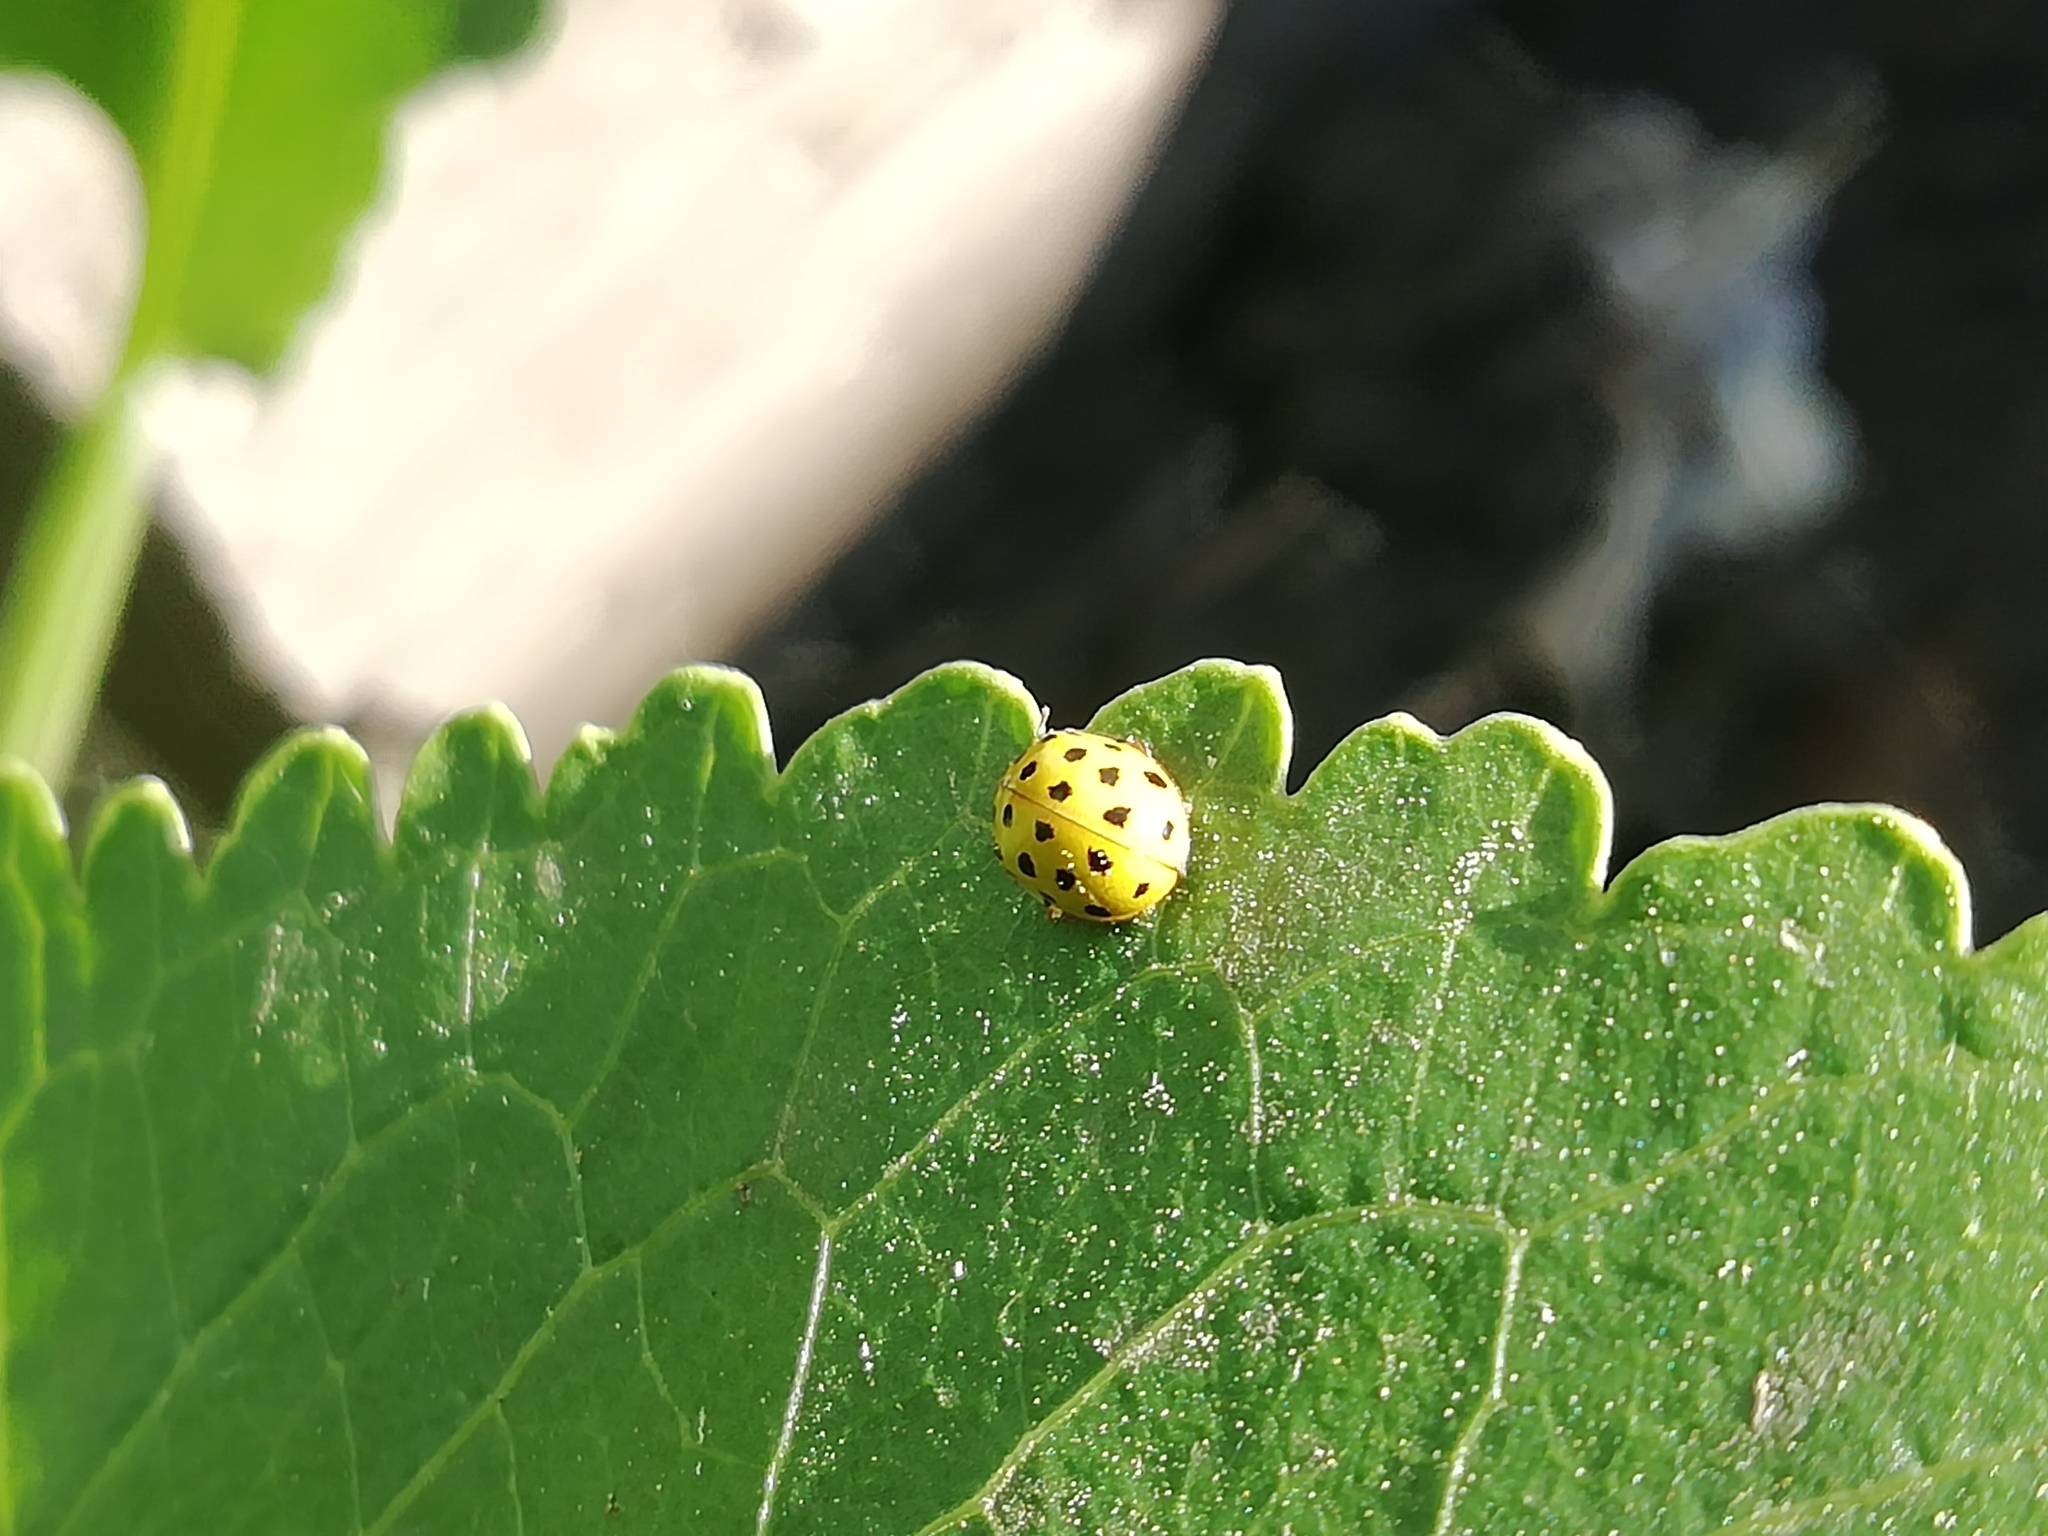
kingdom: Animalia
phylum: Arthropoda
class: Insecta
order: Coleoptera
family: Coccinellidae
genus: Psyllobora
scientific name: Psyllobora vigintiduopunctata
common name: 22-spot ladybird
